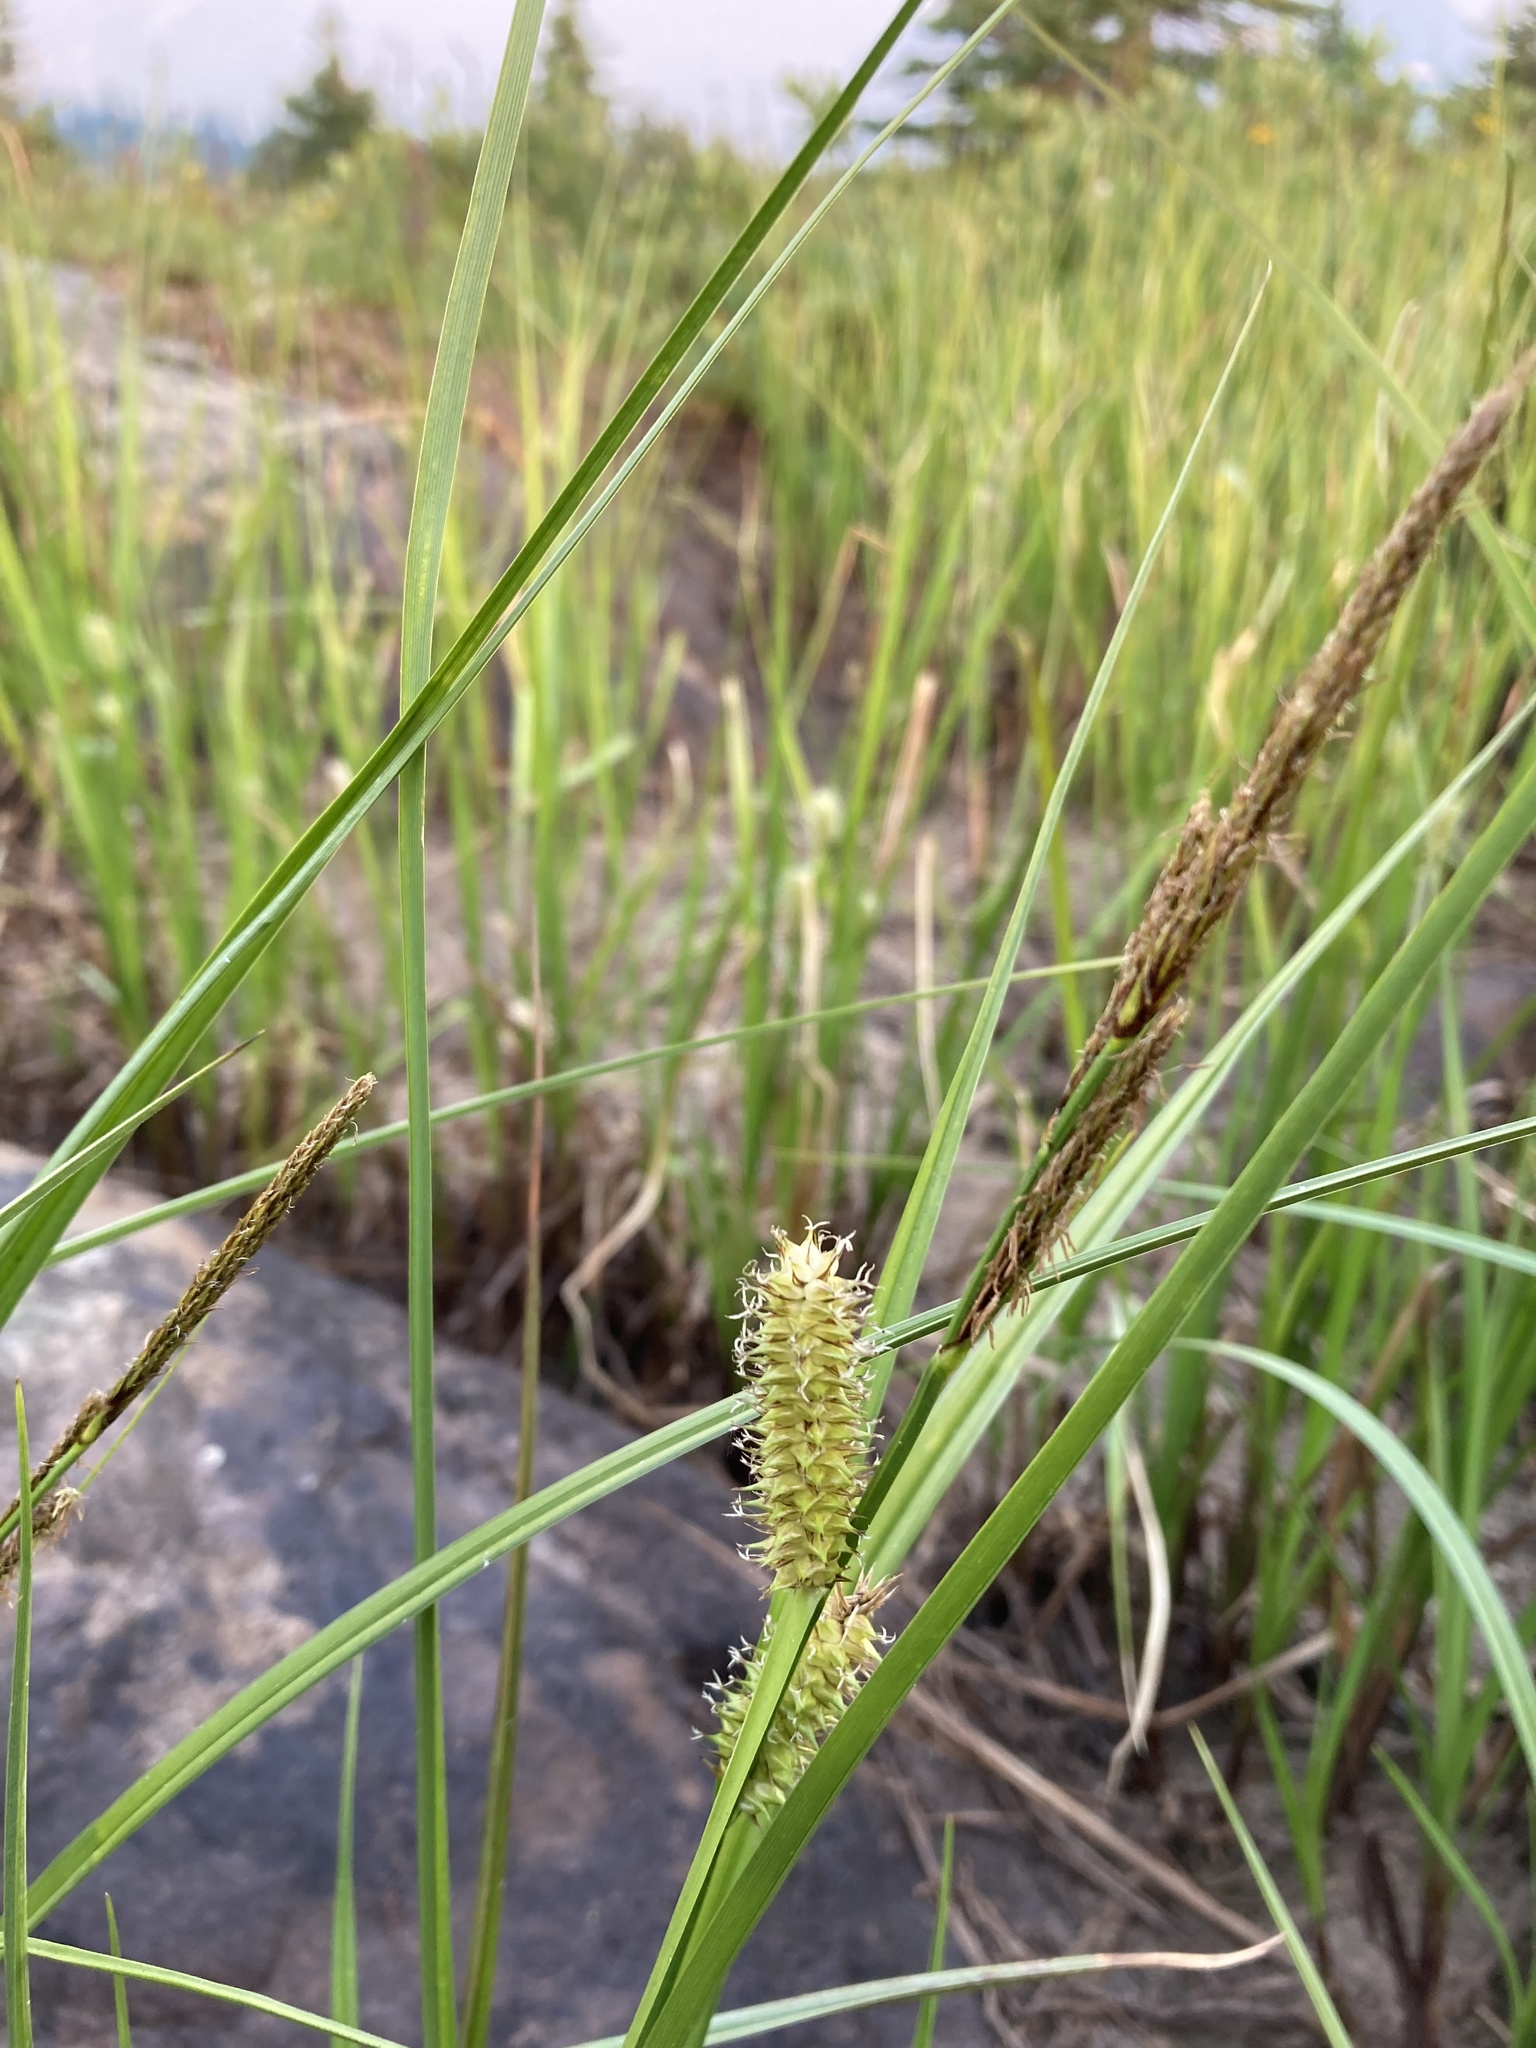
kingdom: Plantae
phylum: Tracheophyta
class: Liliopsida
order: Poales
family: Cyperaceae
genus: Carex
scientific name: Carex utriculata
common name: Beaked sedge
